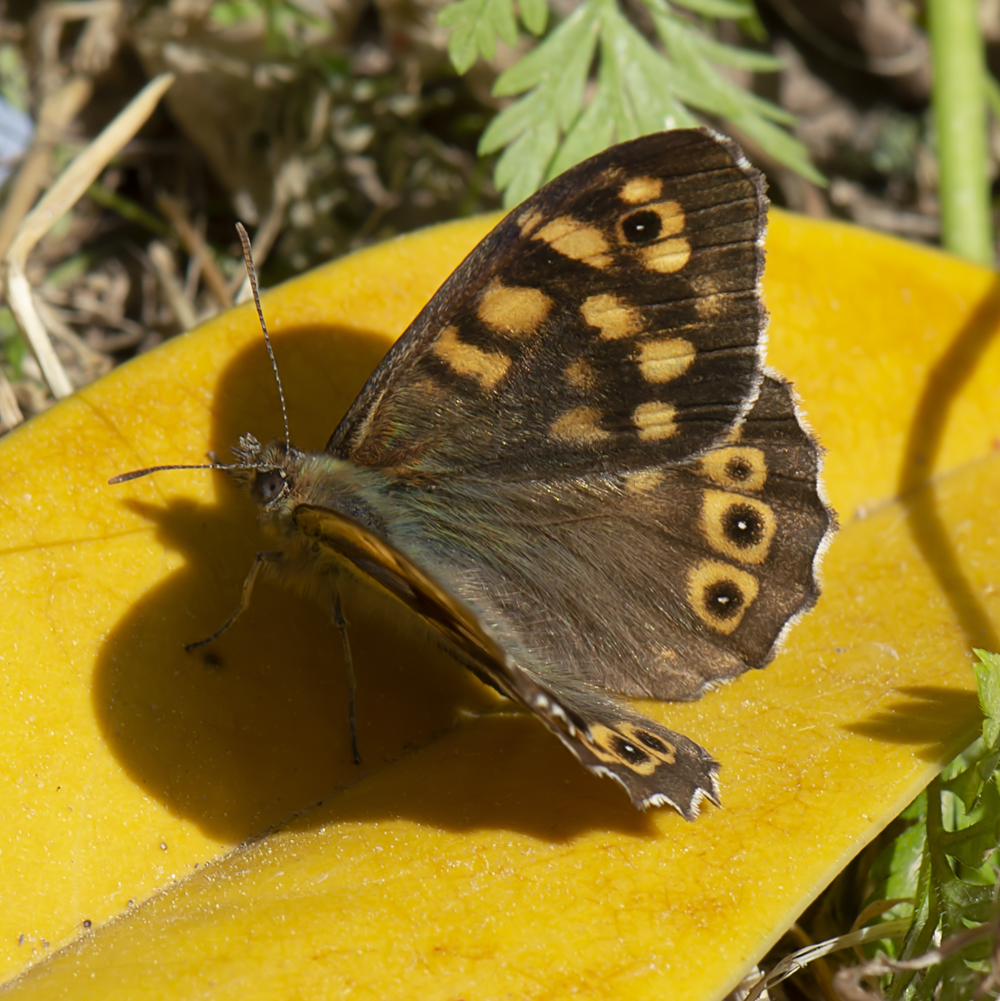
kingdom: Animalia
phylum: Arthropoda
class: Insecta
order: Lepidoptera
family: Nymphalidae
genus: Pararge
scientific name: Pararge aegeria
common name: Speckled wood
